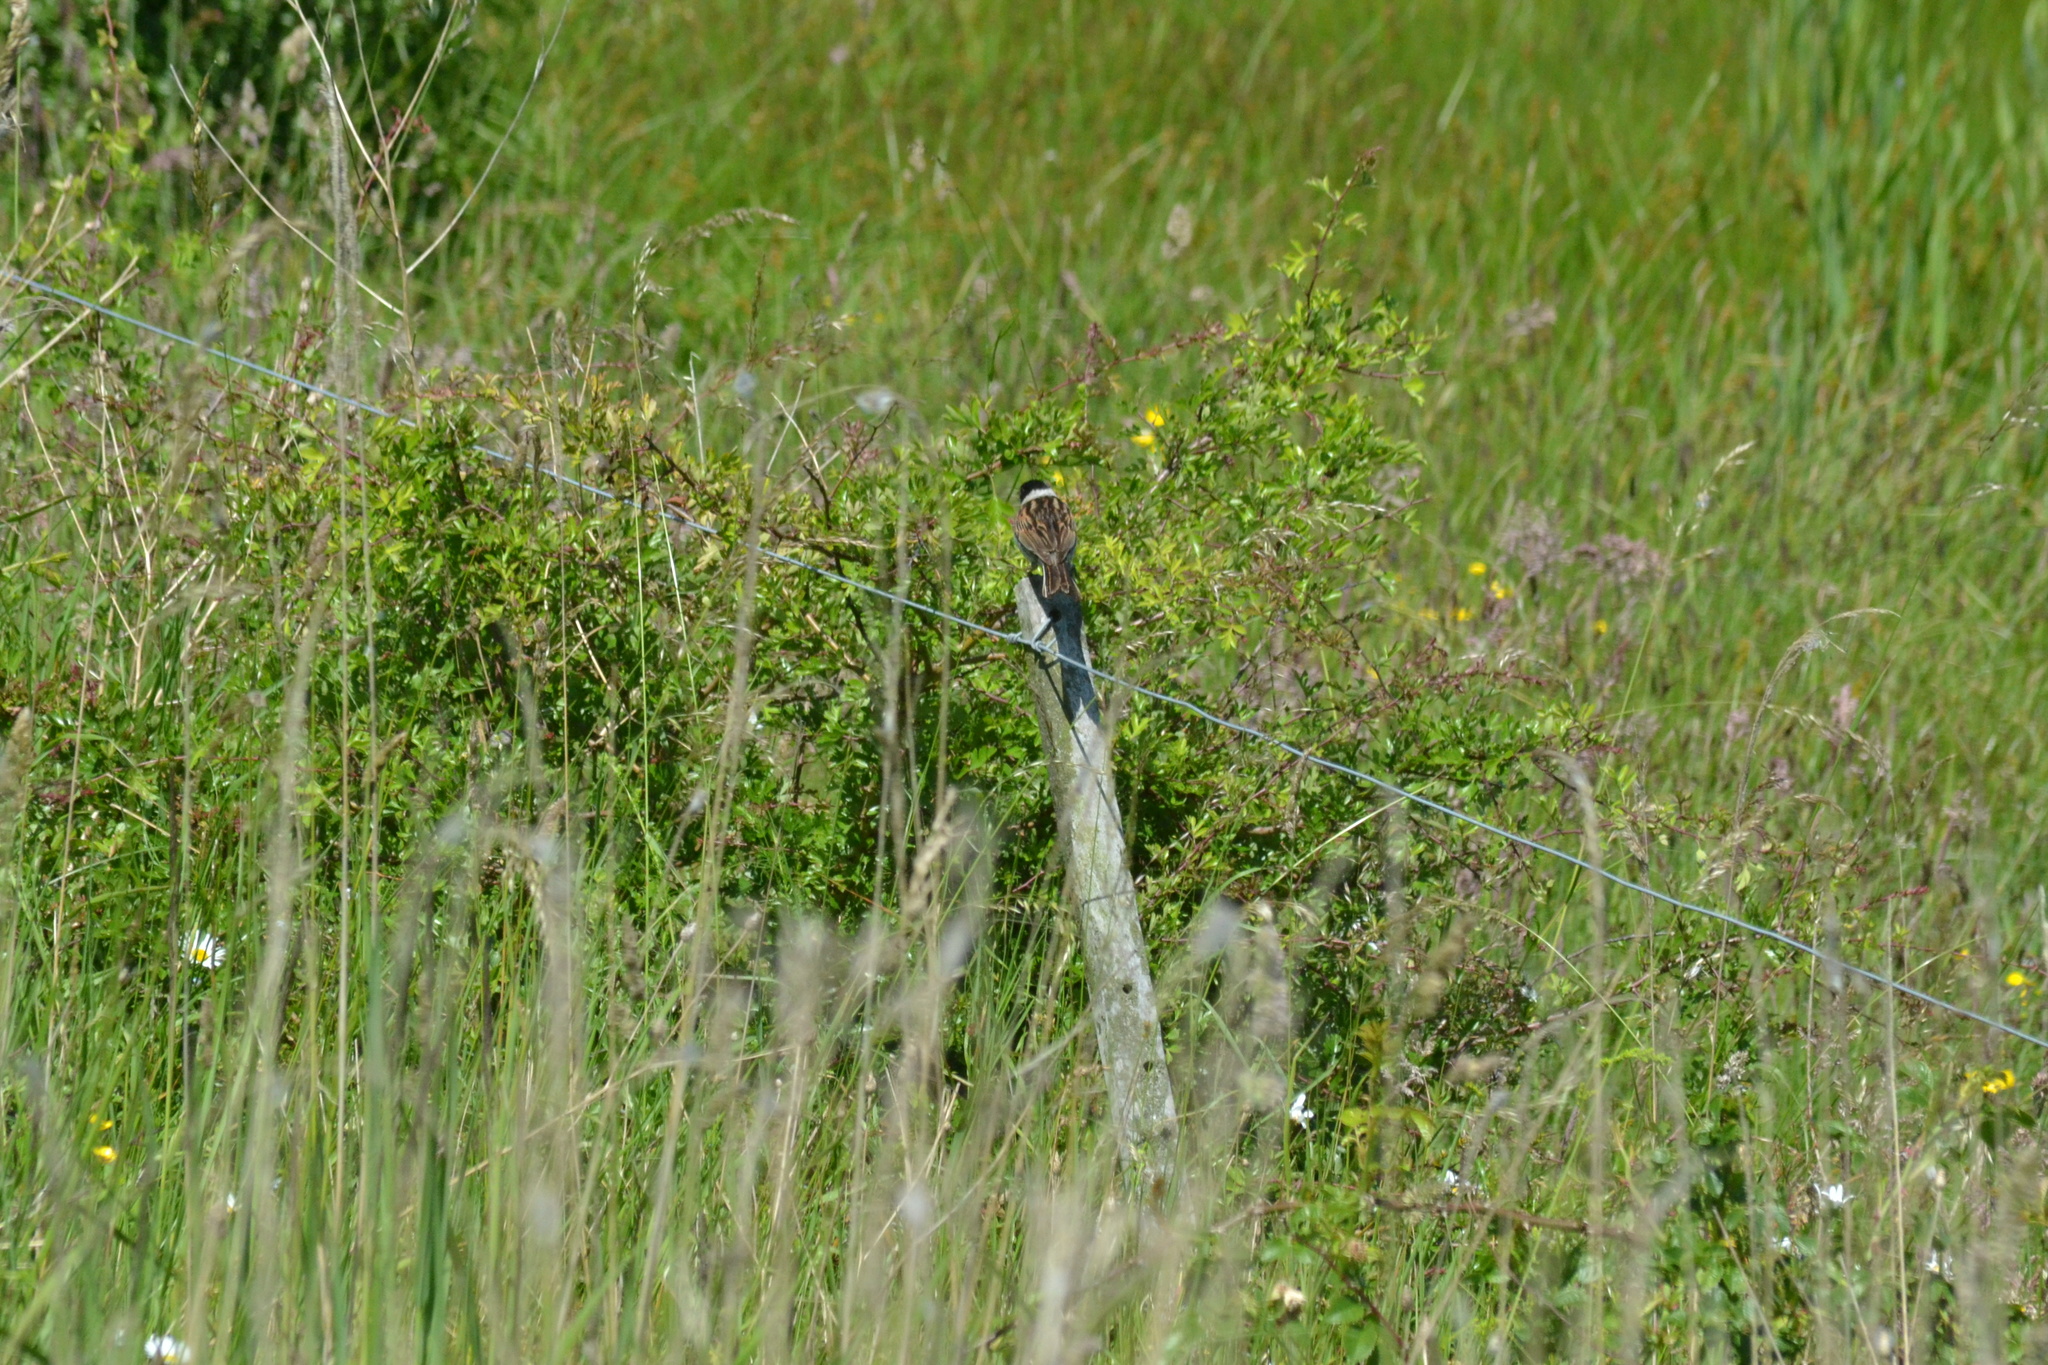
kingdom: Animalia
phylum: Chordata
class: Aves
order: Passeriformes
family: Emberizidae
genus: Emberiza
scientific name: Emberiza schoeniclus
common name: Reed bunting
